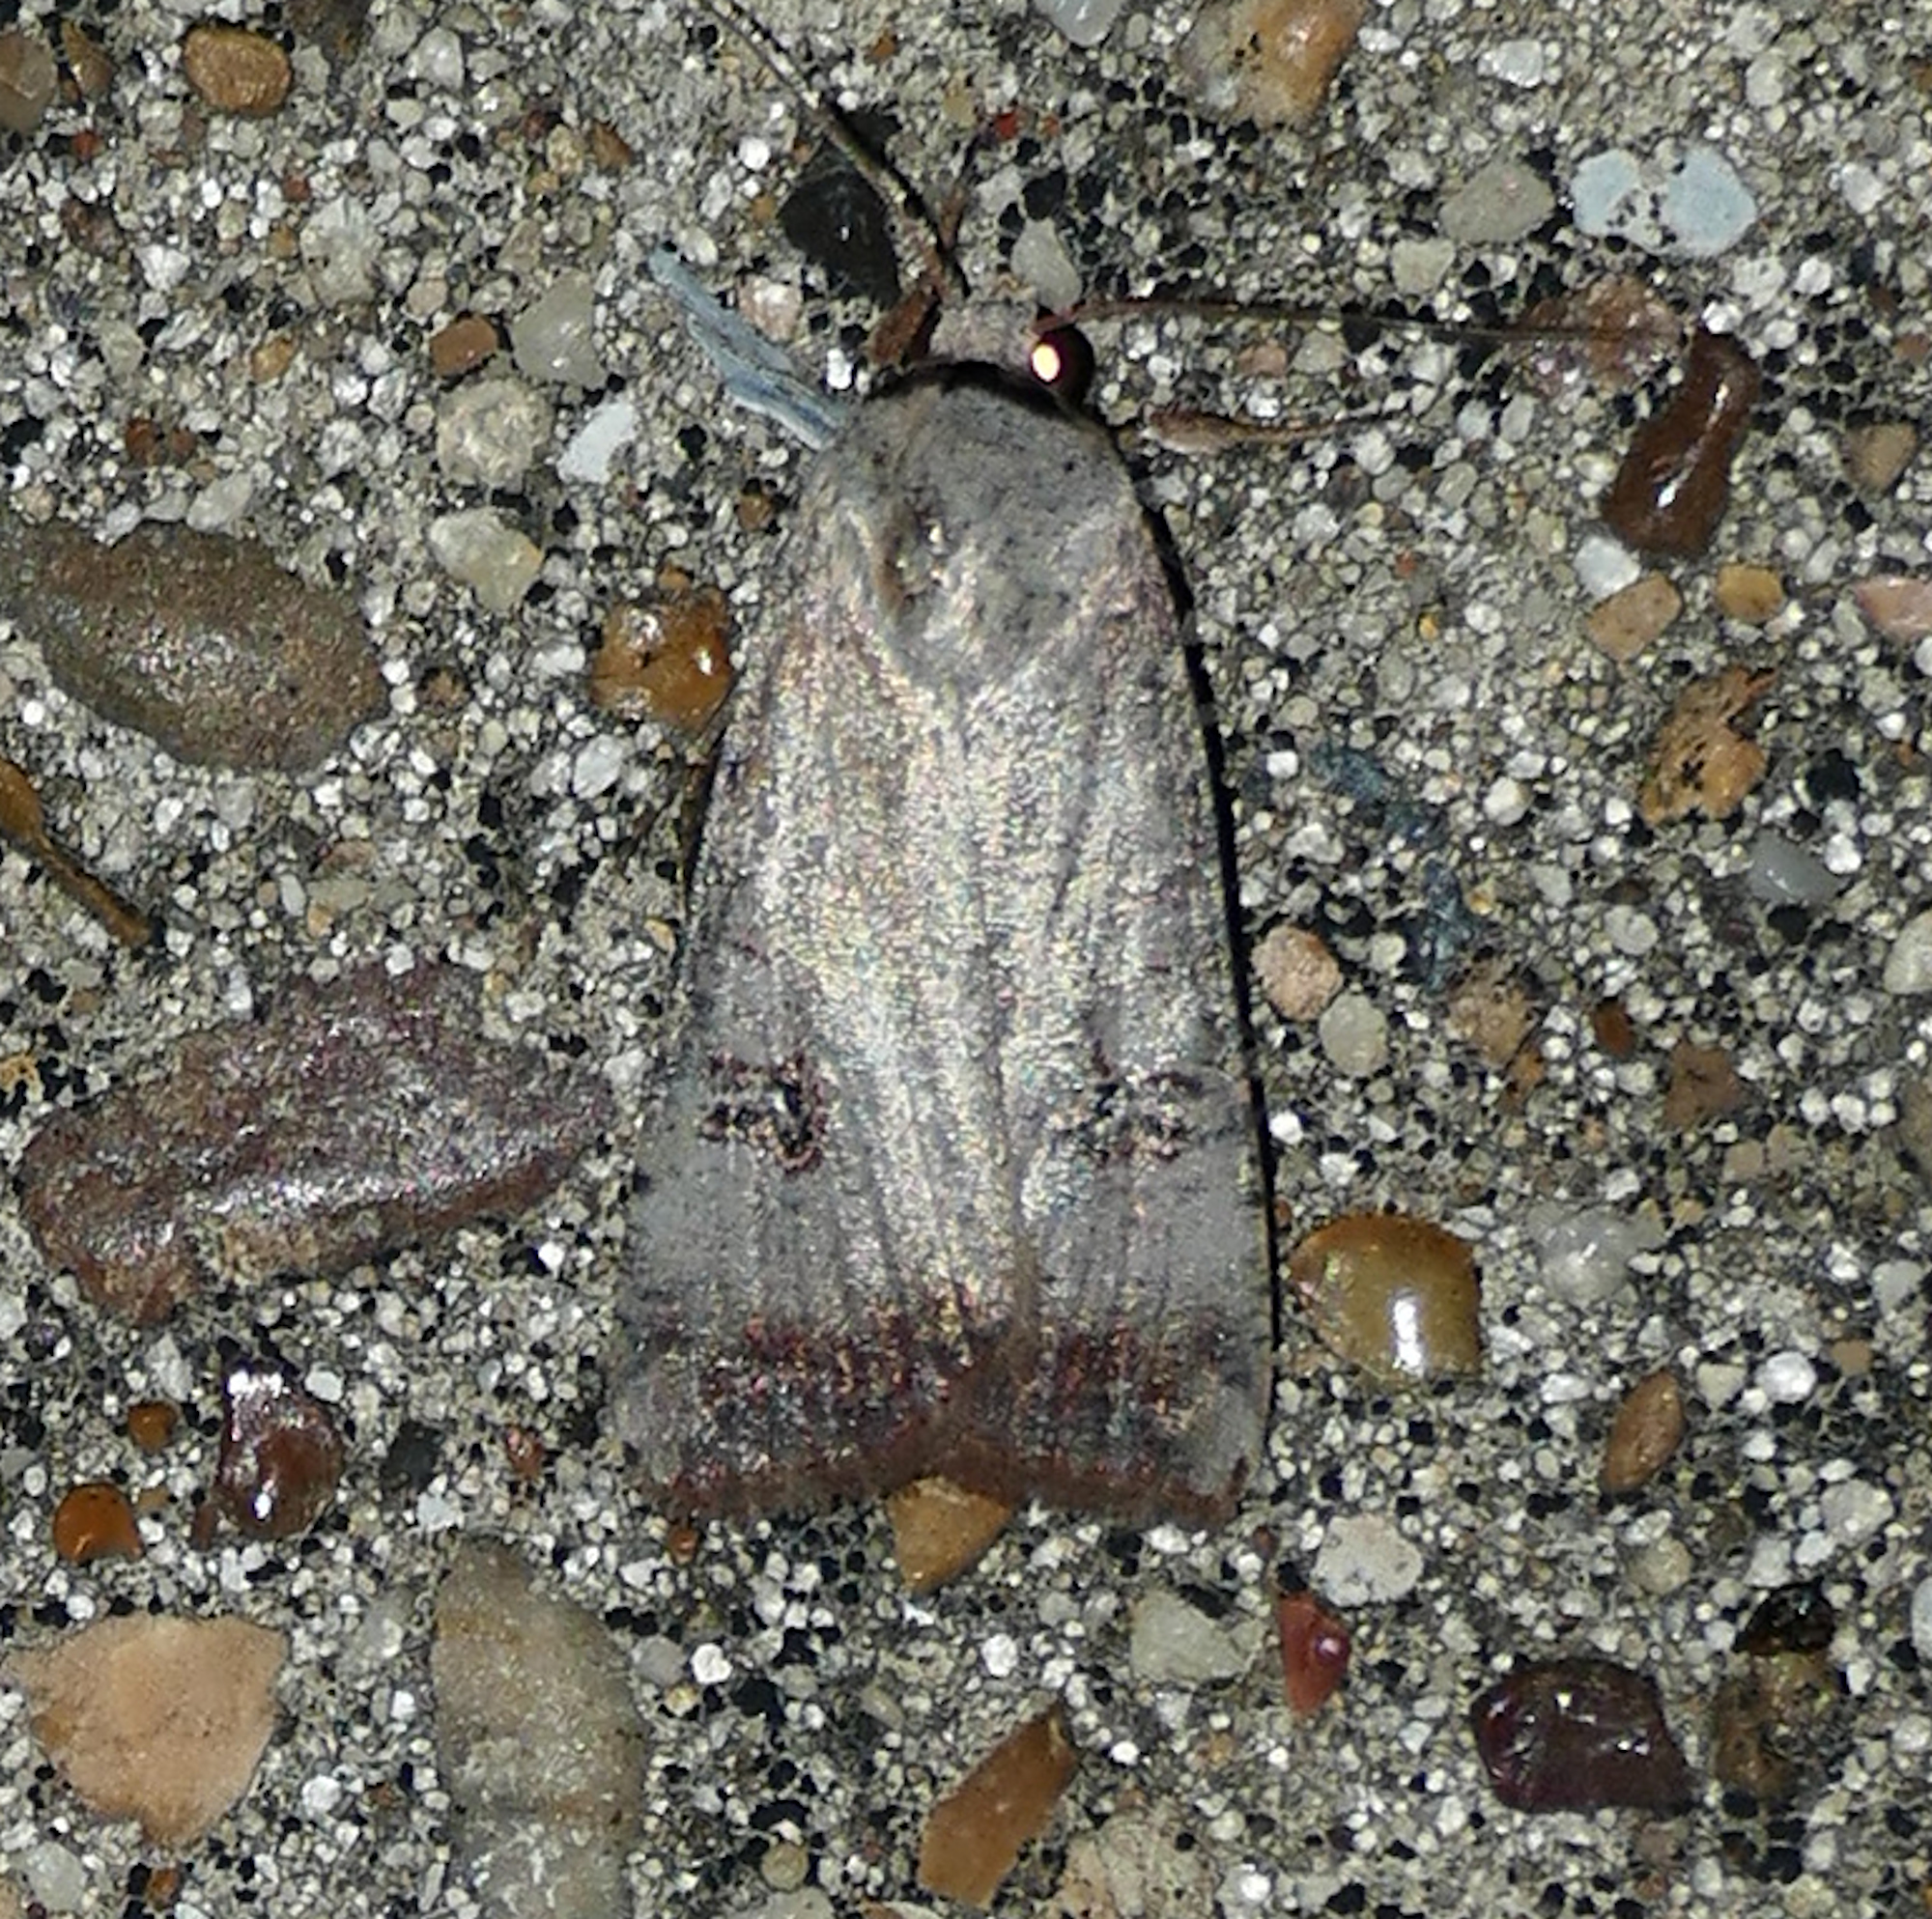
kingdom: Animalia
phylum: Arthropoda
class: Insecta
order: Lepidoptera
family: Noctuidae
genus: Anicla
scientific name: Anicla infecta
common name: Green cutworm
